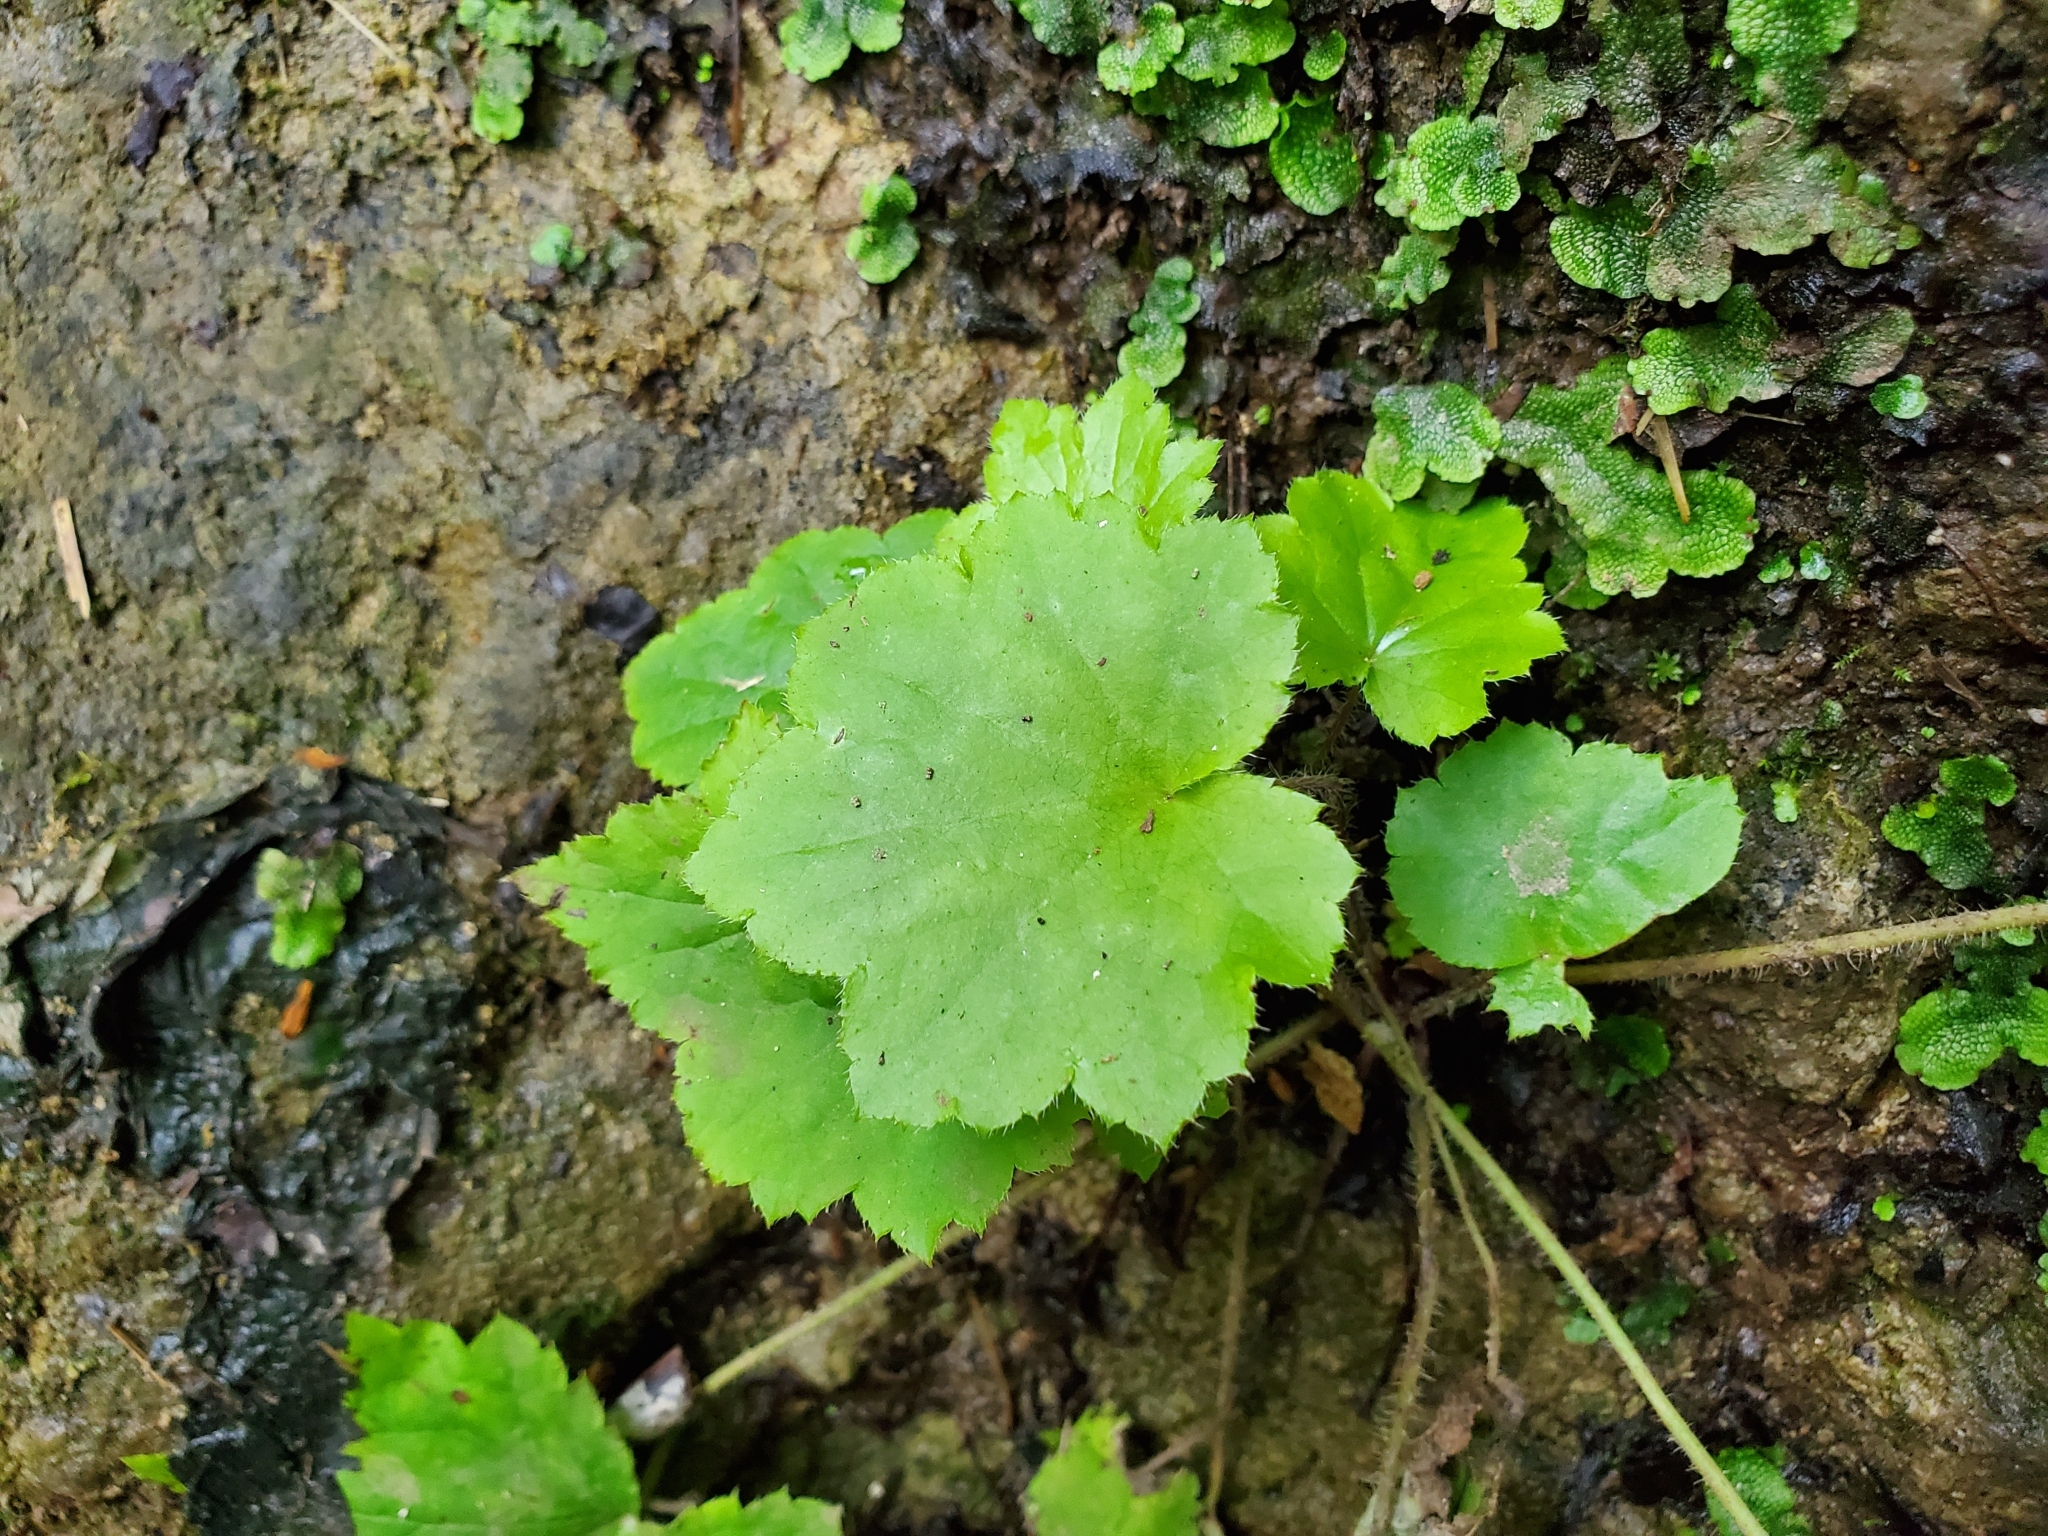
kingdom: Plantae
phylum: Tracheophyta
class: Magnoliopsida
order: Saxifragales
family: Saxifragaceae
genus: Heuchera
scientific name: Heuchera villosa
